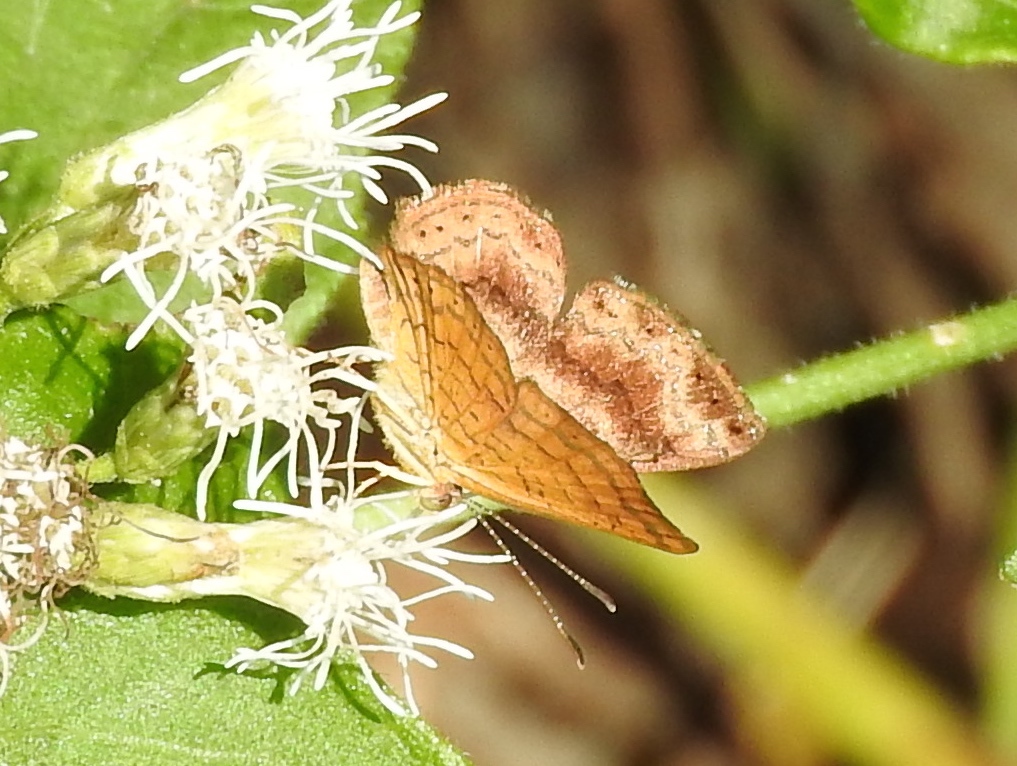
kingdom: Animalia
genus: Calephelis
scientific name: Calephelis
